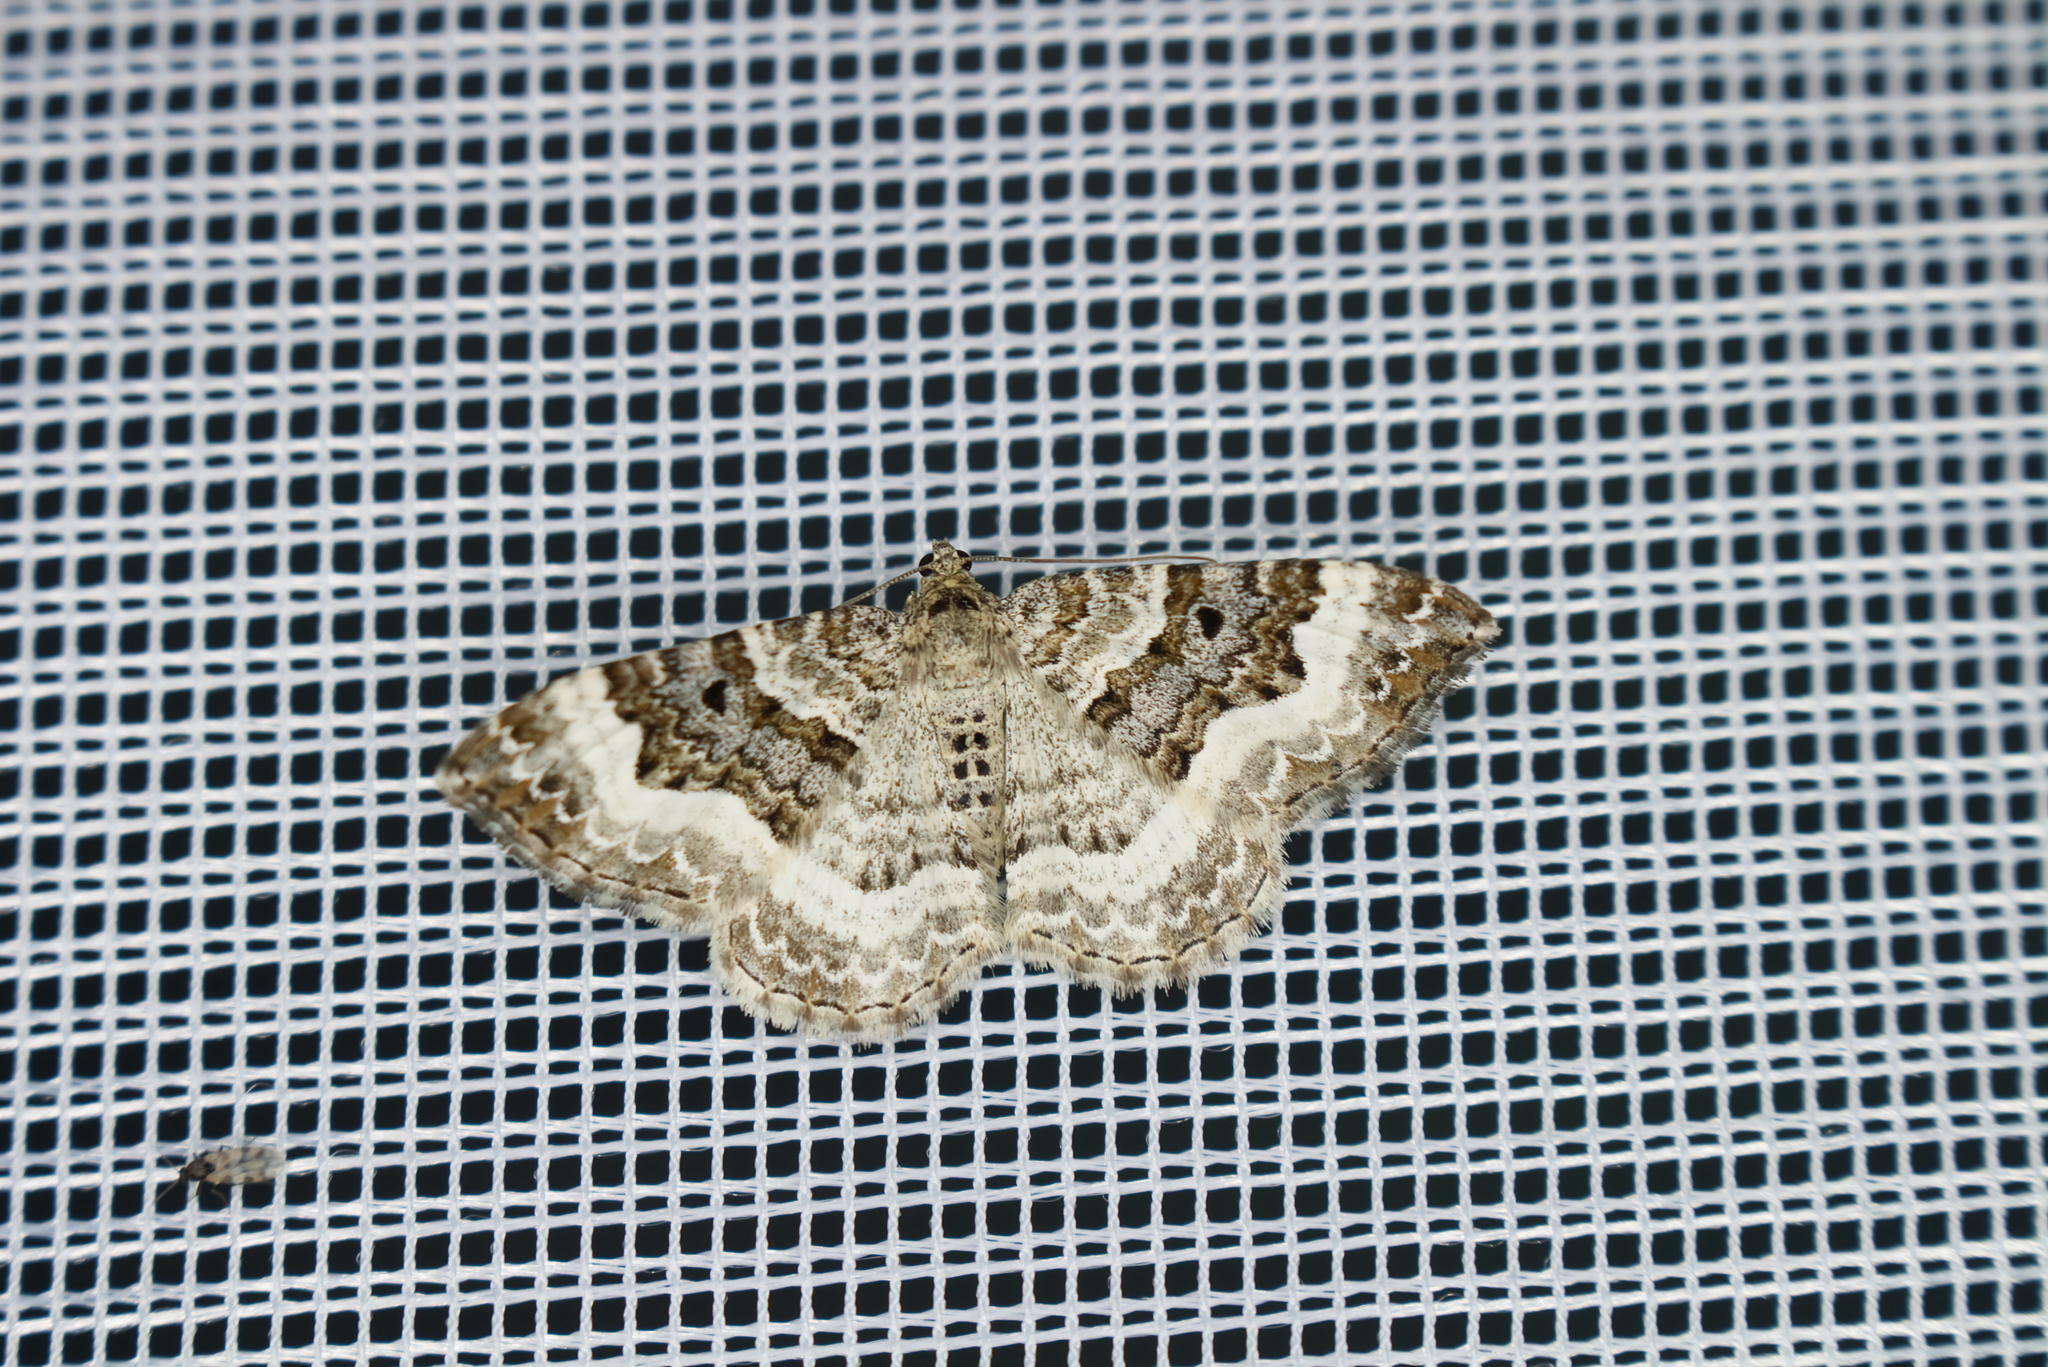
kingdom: Animalia
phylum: Arthropoda
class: Insecta
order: Lepidoptera
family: Geometridae
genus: Epirrhoe
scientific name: Epirrhoe alternata
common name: Common carpet
